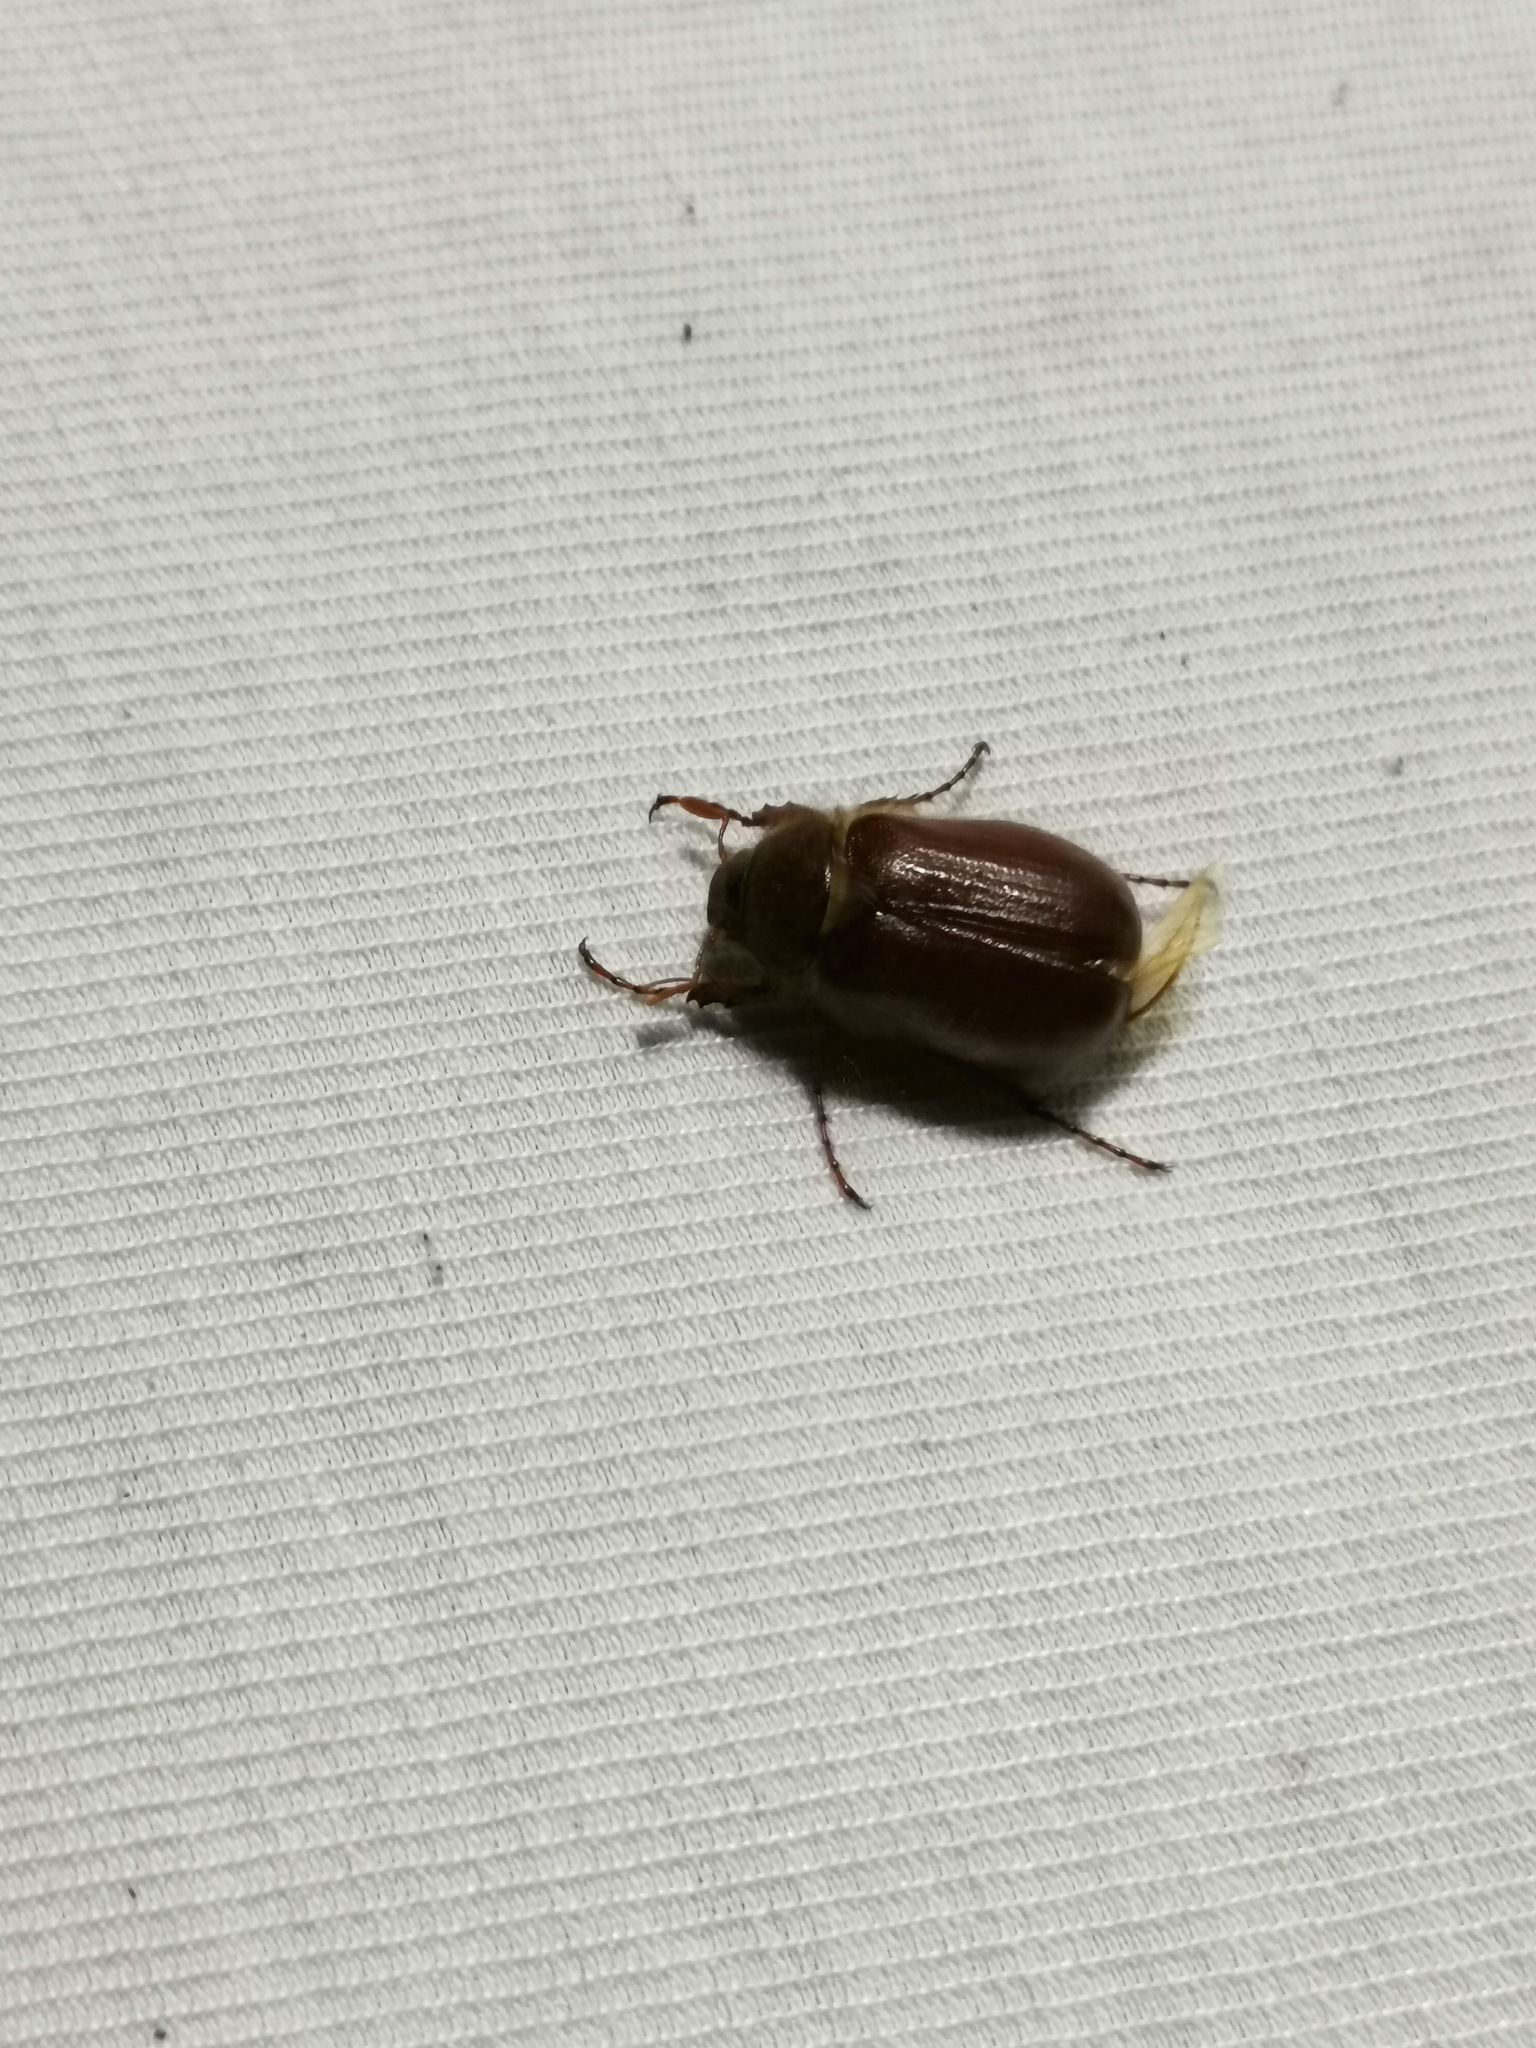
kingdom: Animalia
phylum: Arthropoda
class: Insecta
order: Coleoptera
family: Scarabaeidae
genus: Holochelus
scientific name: Holochelus aequinoctialis
